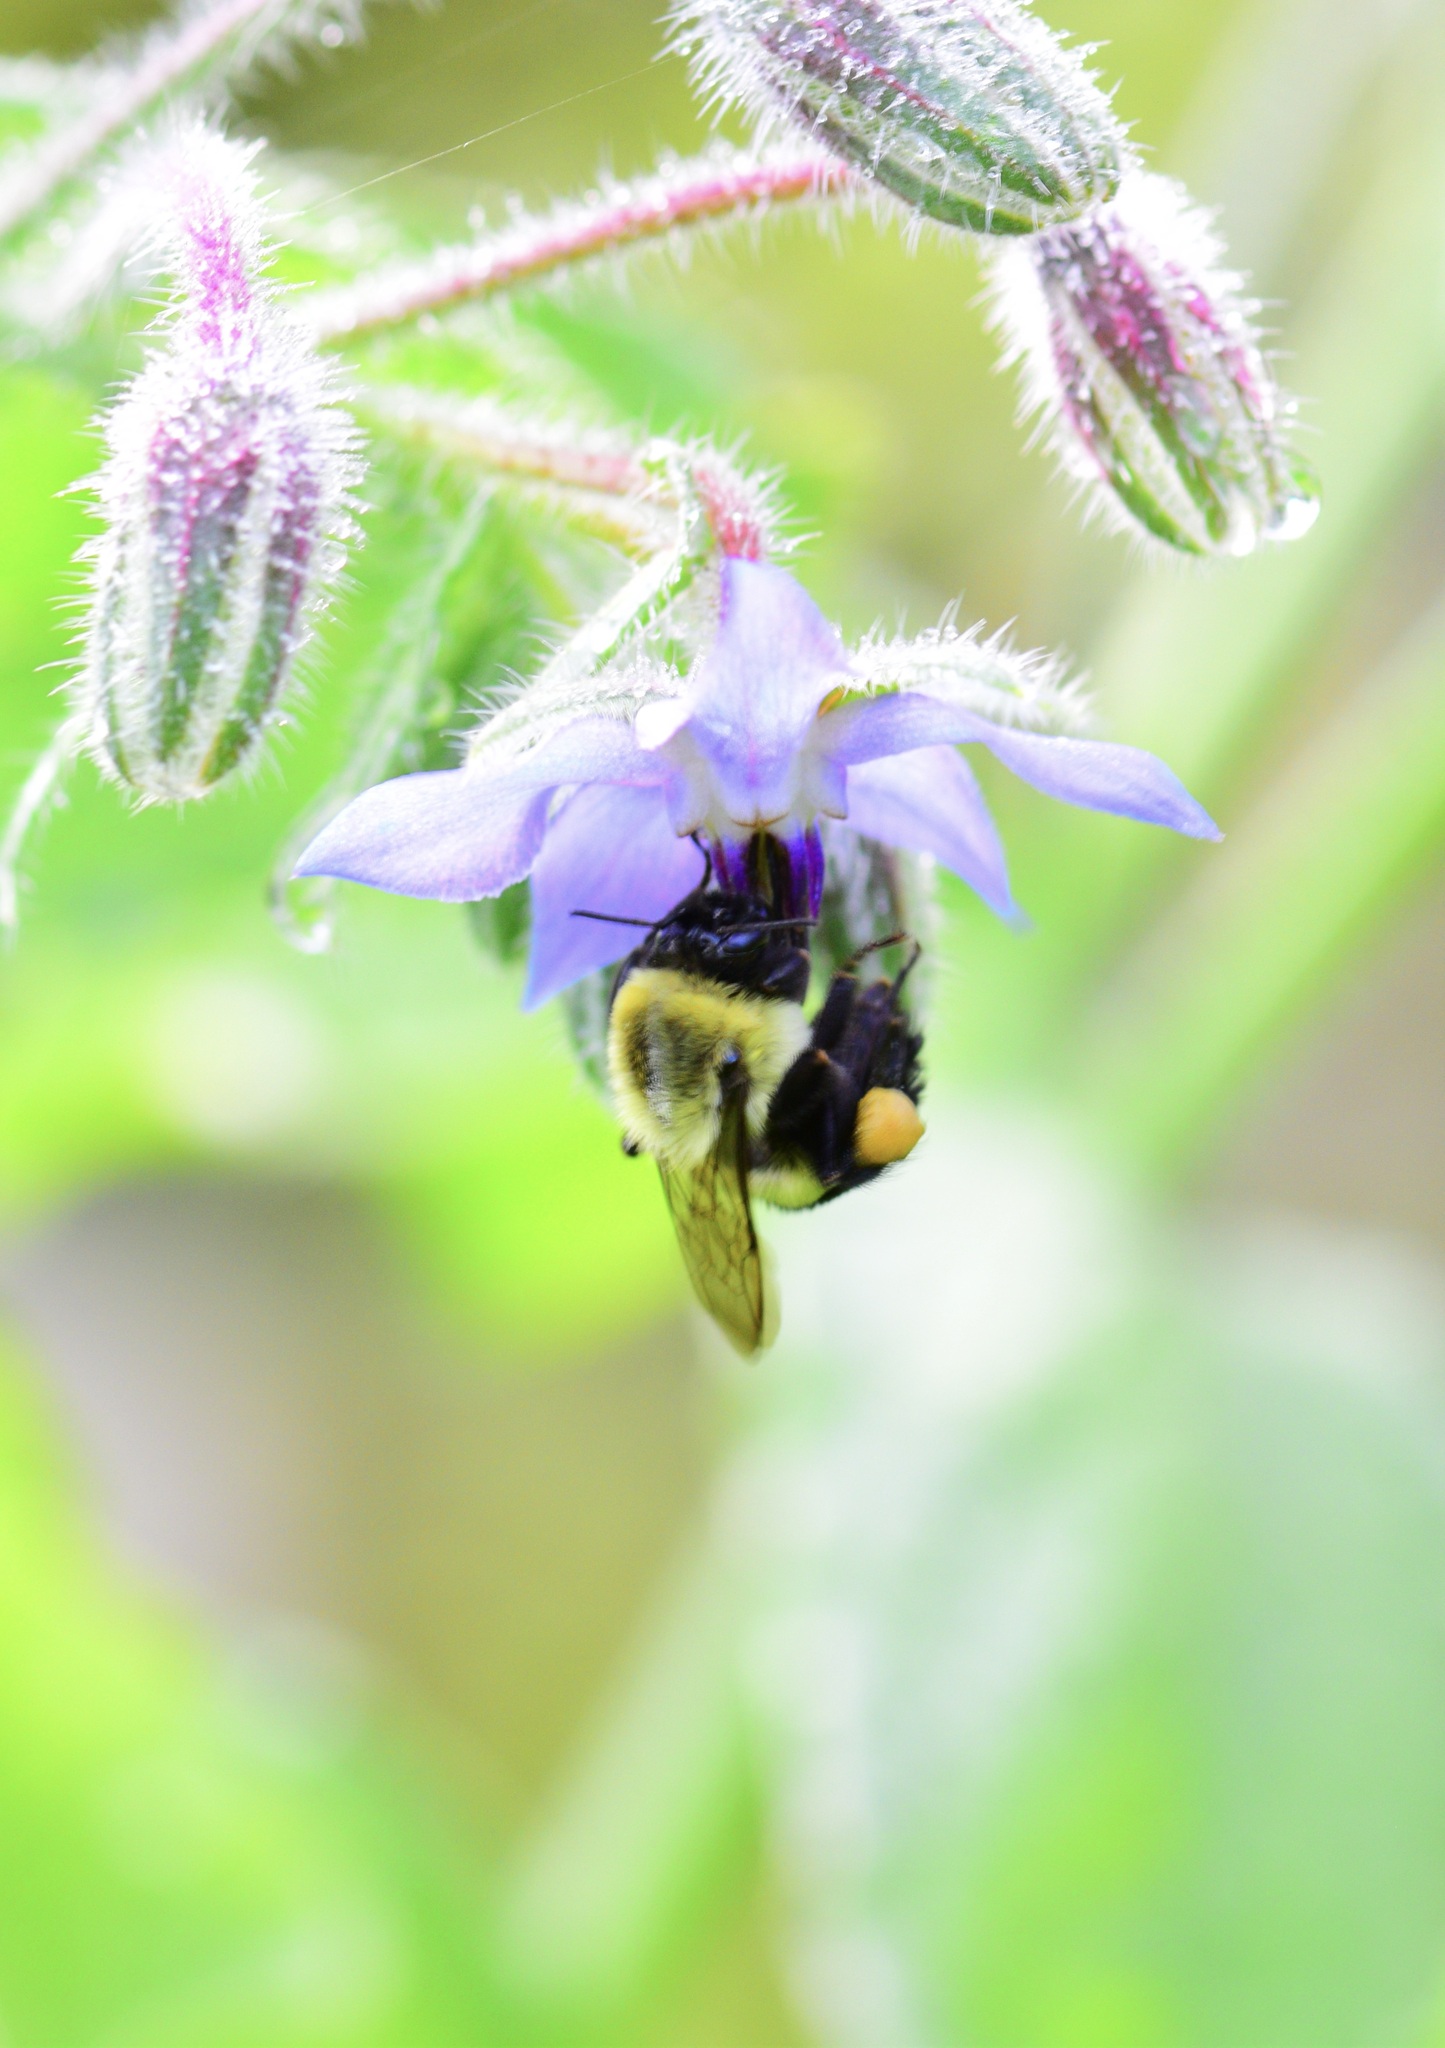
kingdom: Animalia
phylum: Arthropoda
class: Insecta
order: Hymenoptera
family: Apidae
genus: Bombus
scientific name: Bombus impatiens
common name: Common eastern bumble bee
